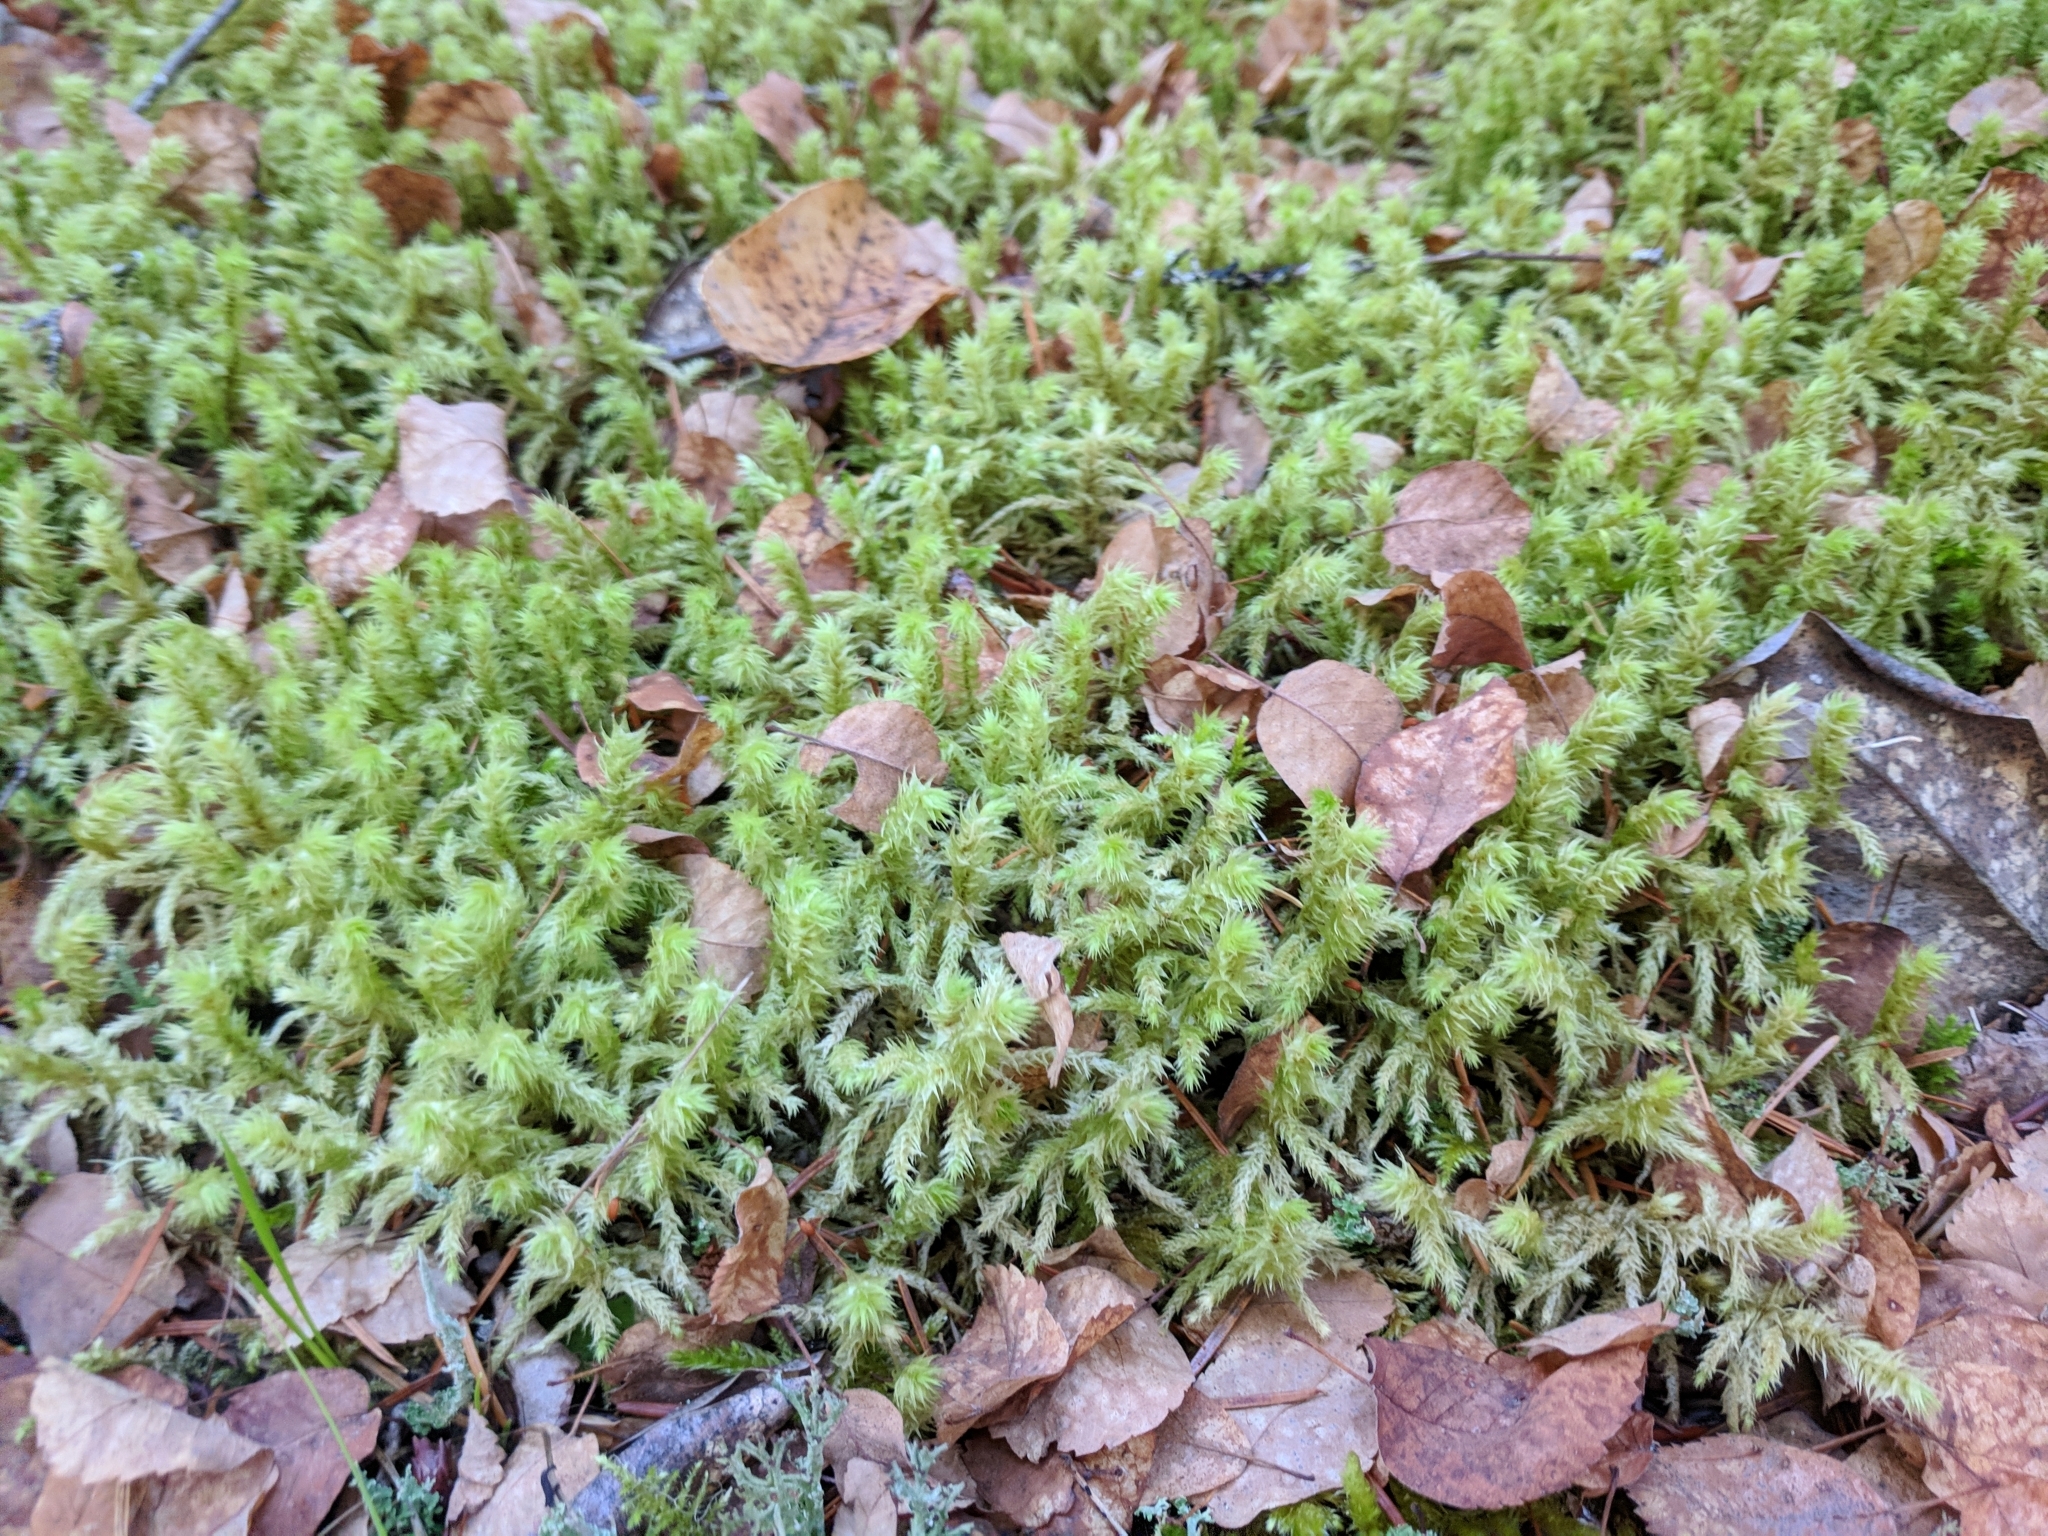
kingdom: Plantae
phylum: Bryophyta
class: Bryopsida
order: Hypnales
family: Hylocomiaceae
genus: Hylocomiadelphus
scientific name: Hylocomiadelphus triquetrus
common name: Rough goose neck moss
